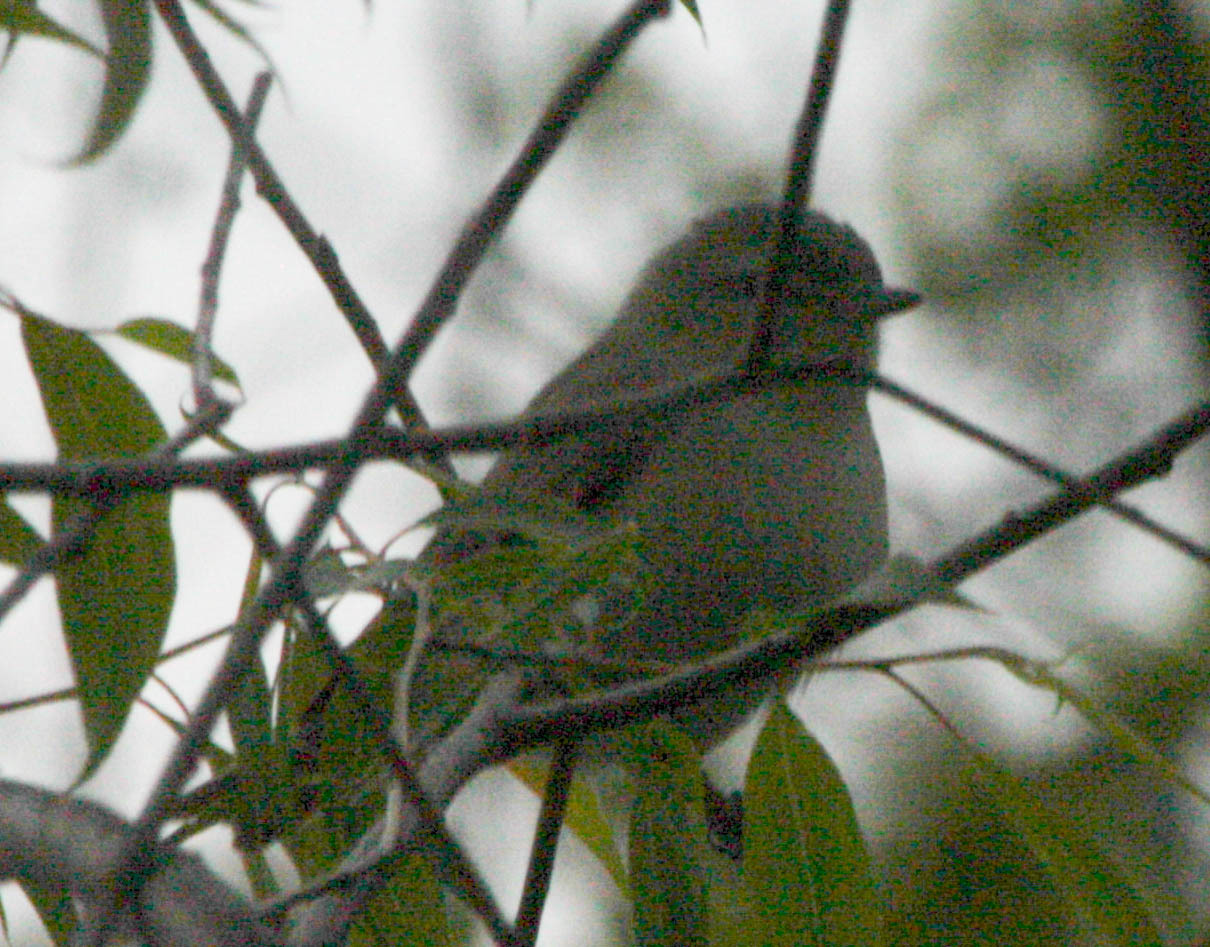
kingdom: Animalia
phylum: Chordata
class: Aves
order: Passeriformes
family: Vireonidae
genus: Vireo
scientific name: Vireo gilvus
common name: Warbling vireo
